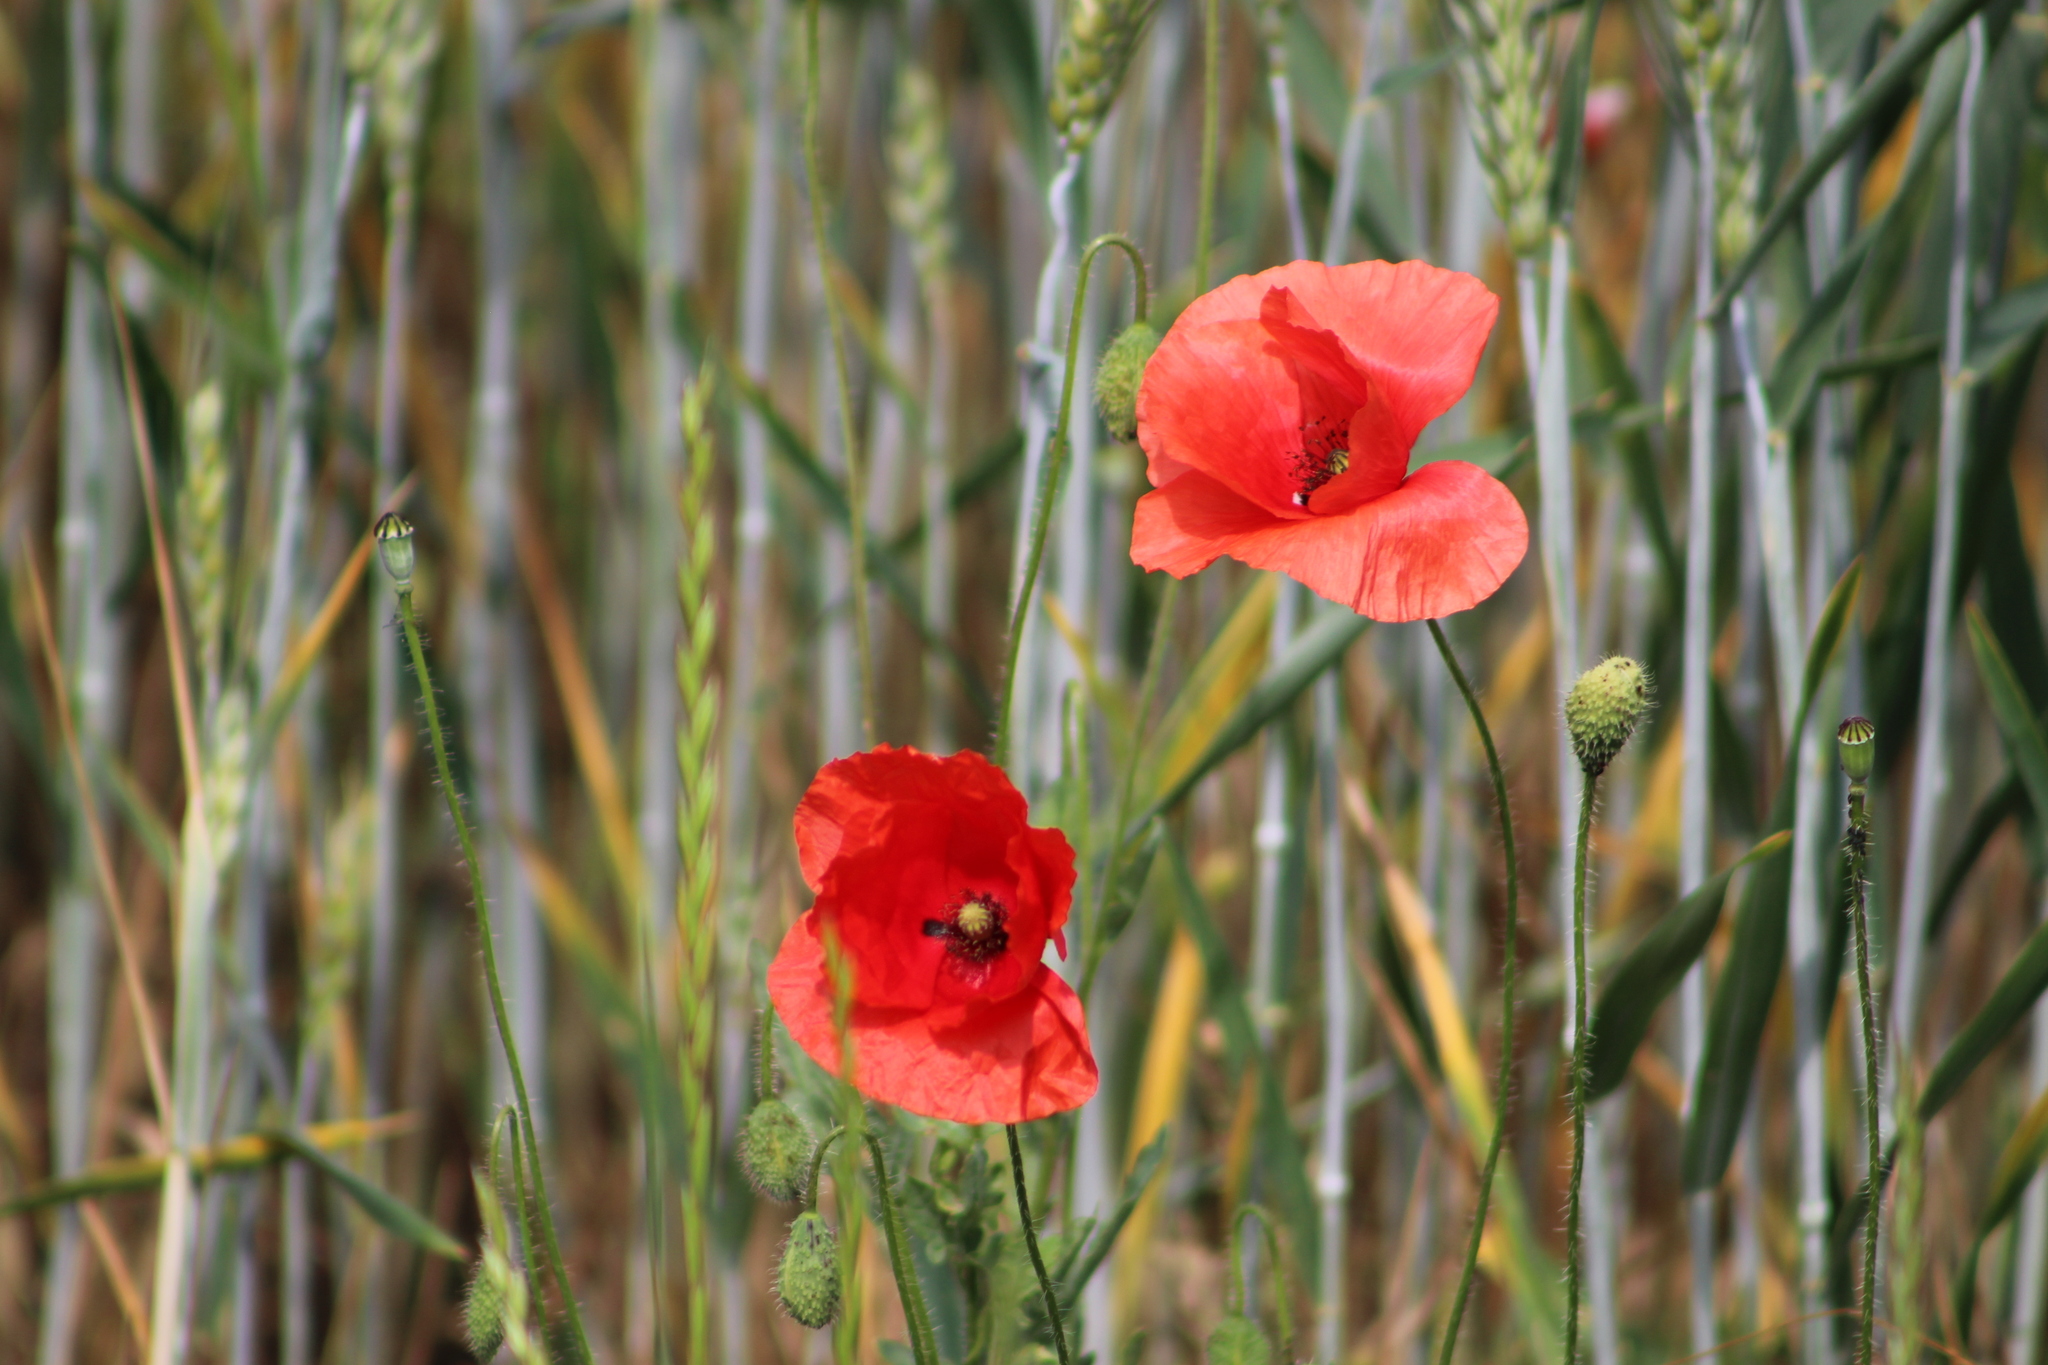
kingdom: Plantae
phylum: Tracheophyta
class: Magnoliopsida
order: Ranunculales
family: Papaveraceae
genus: Papaver
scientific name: Papaver rhoeas
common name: Corn poppy
